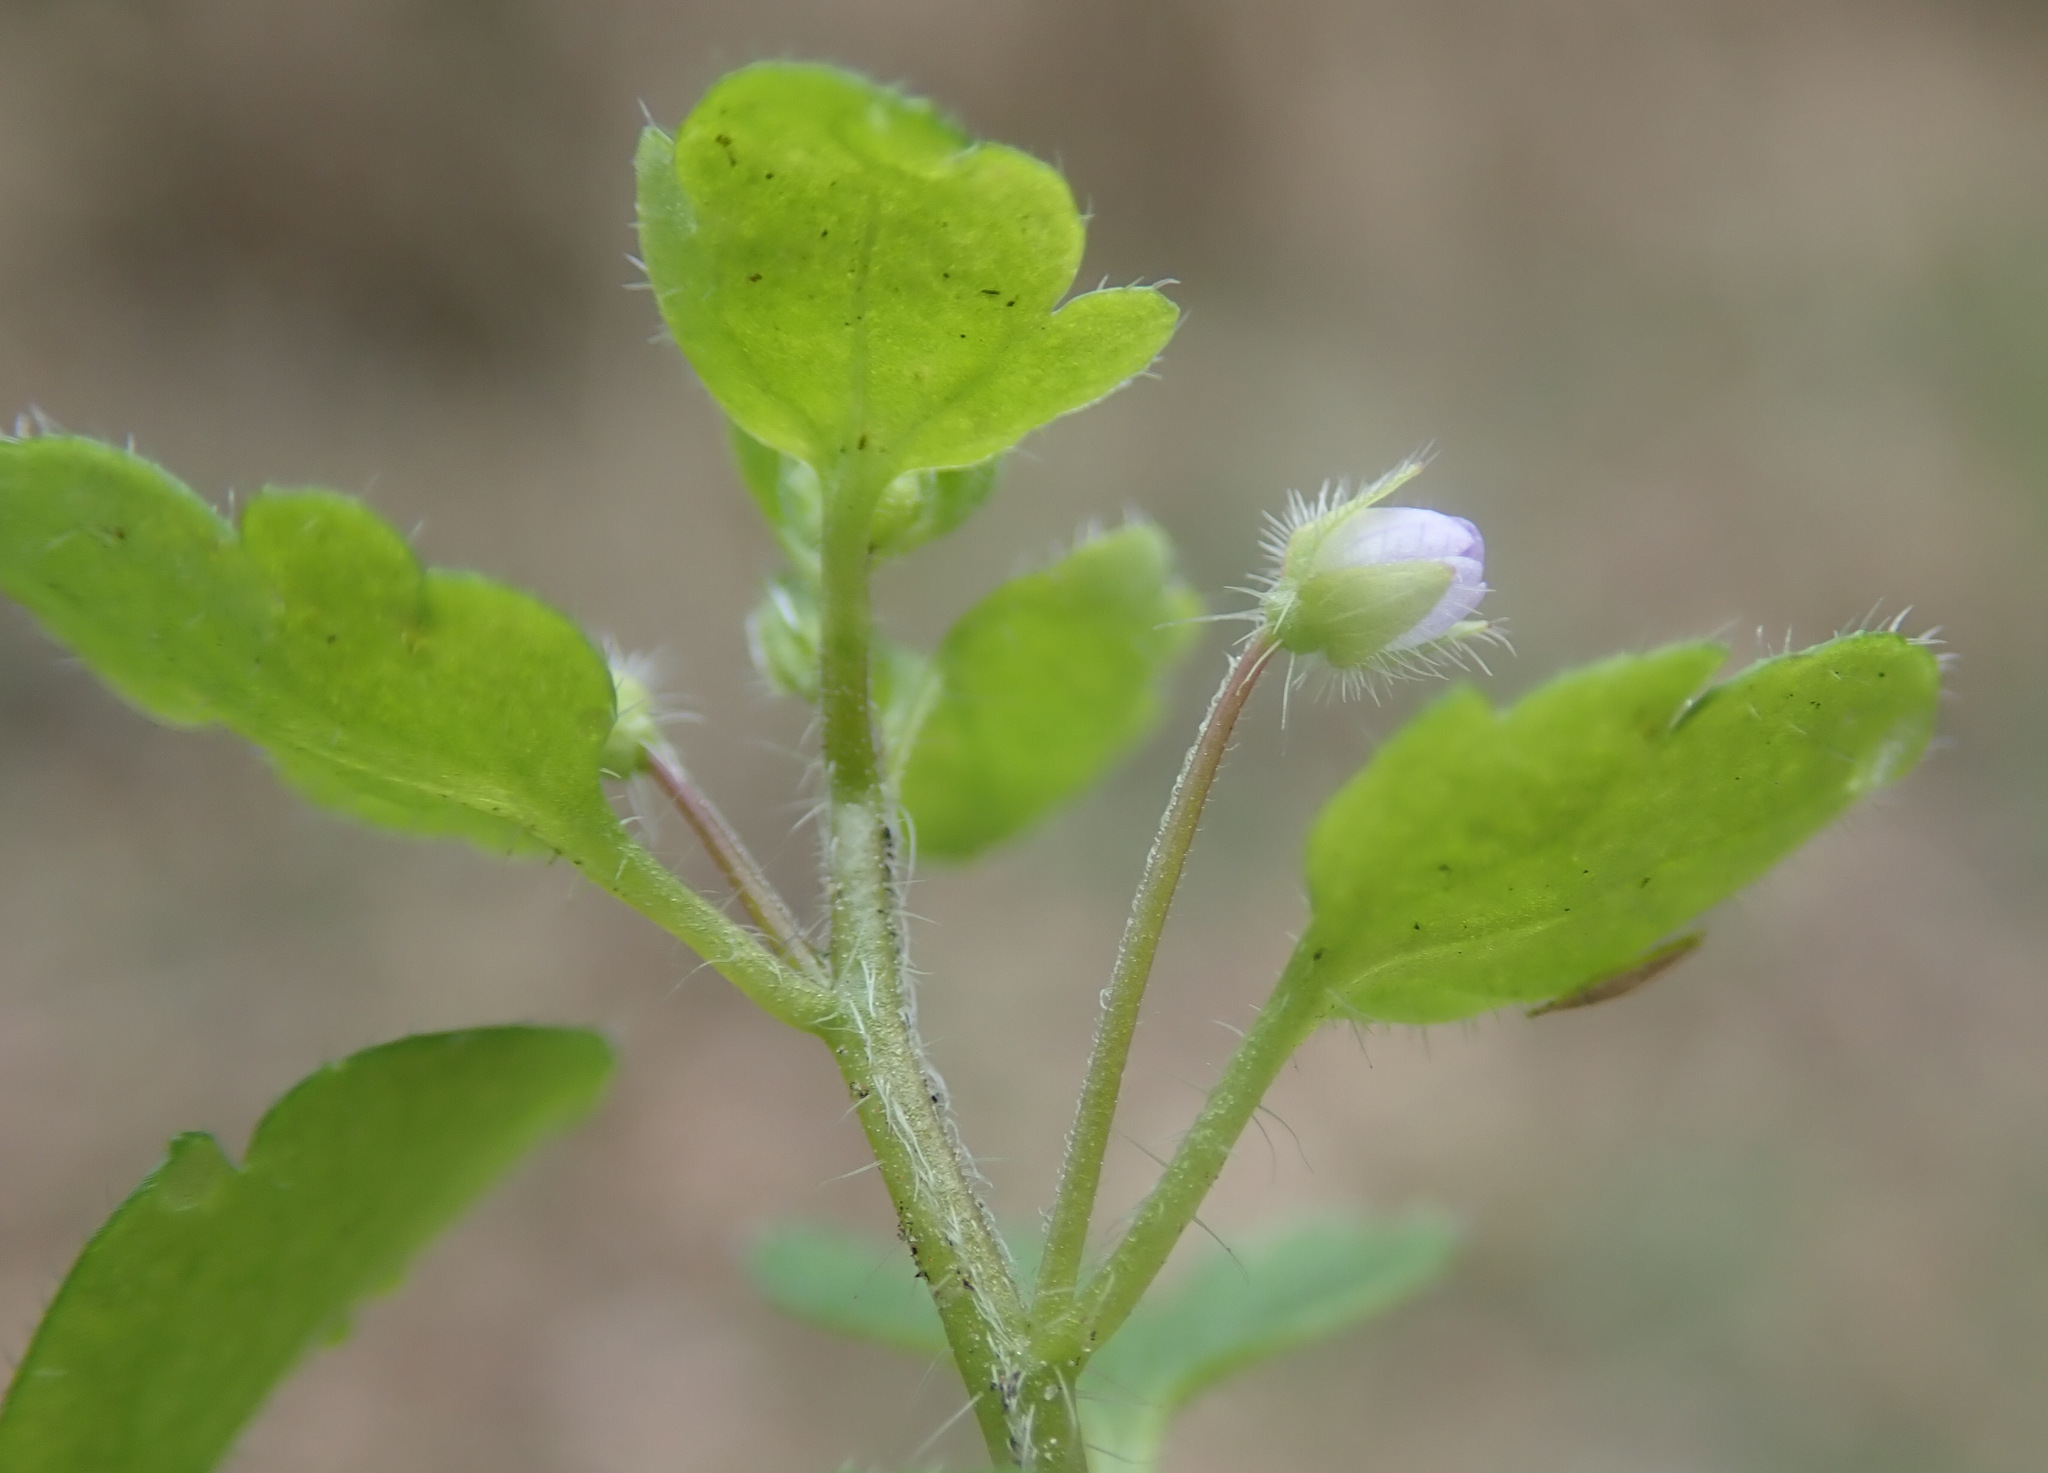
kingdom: Plantae
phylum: Tracheophyta
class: Magnoliopsida
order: Lamiales
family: Plantaginaceae
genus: Veronica
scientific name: Veronica sublobata
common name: False ivy-leaved speedwell
